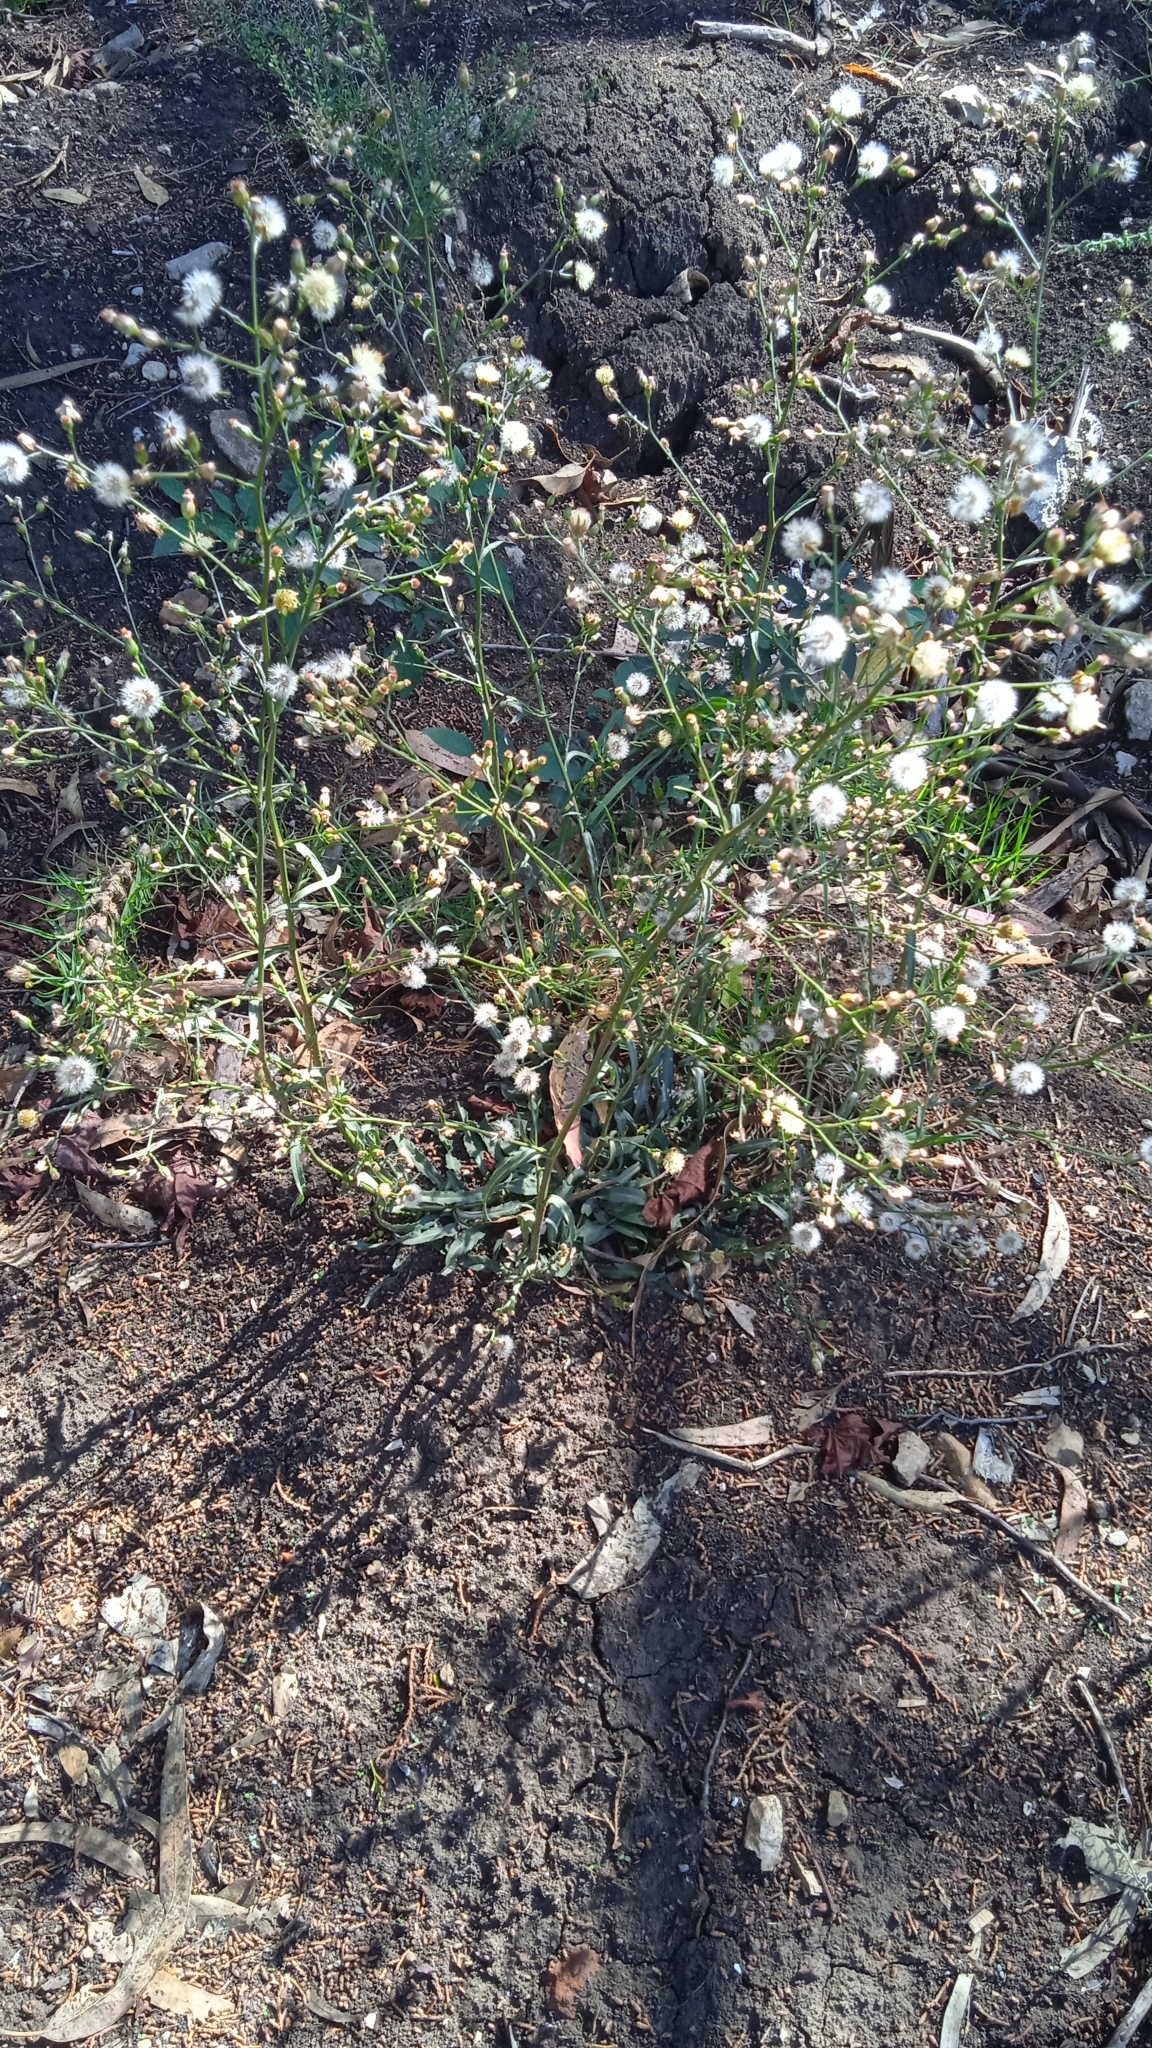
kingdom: Plantae
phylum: Tracheophyta
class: Magnoliopsida
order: Asterales
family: Asteraceae
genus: Erigeron
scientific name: Erigeron bonariensis
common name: Argentine fleabane
